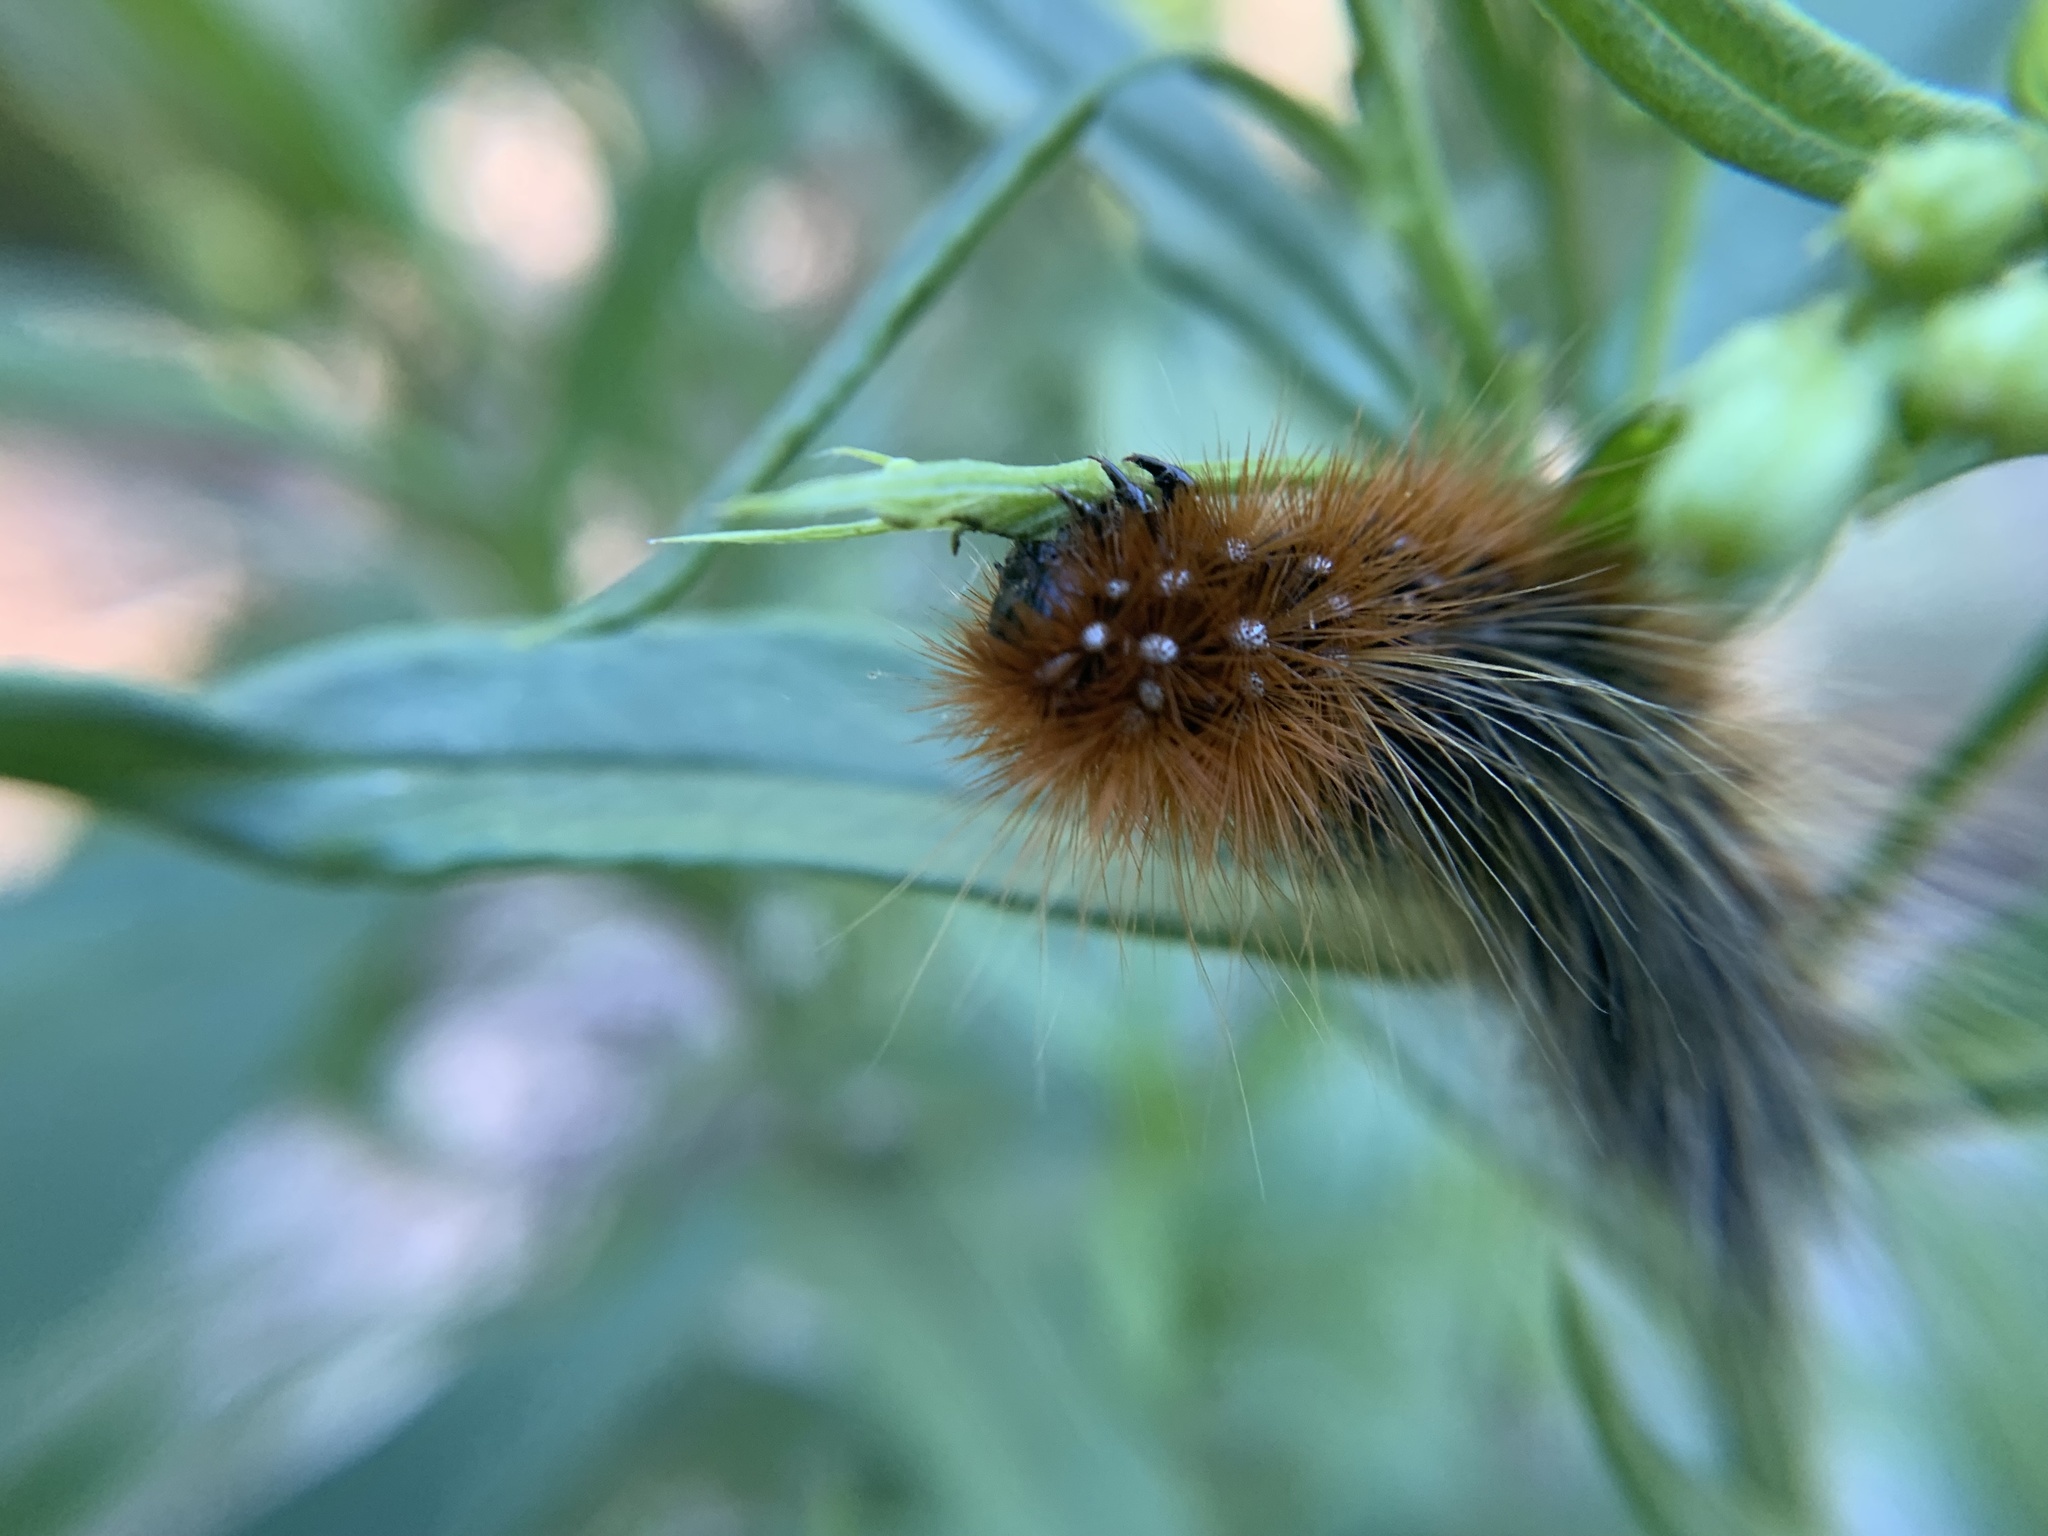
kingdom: Animalia
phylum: Arthropoda
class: Insecta
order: Lepidoptera
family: Erebidae
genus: Arctia
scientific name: Arctia tigrina
